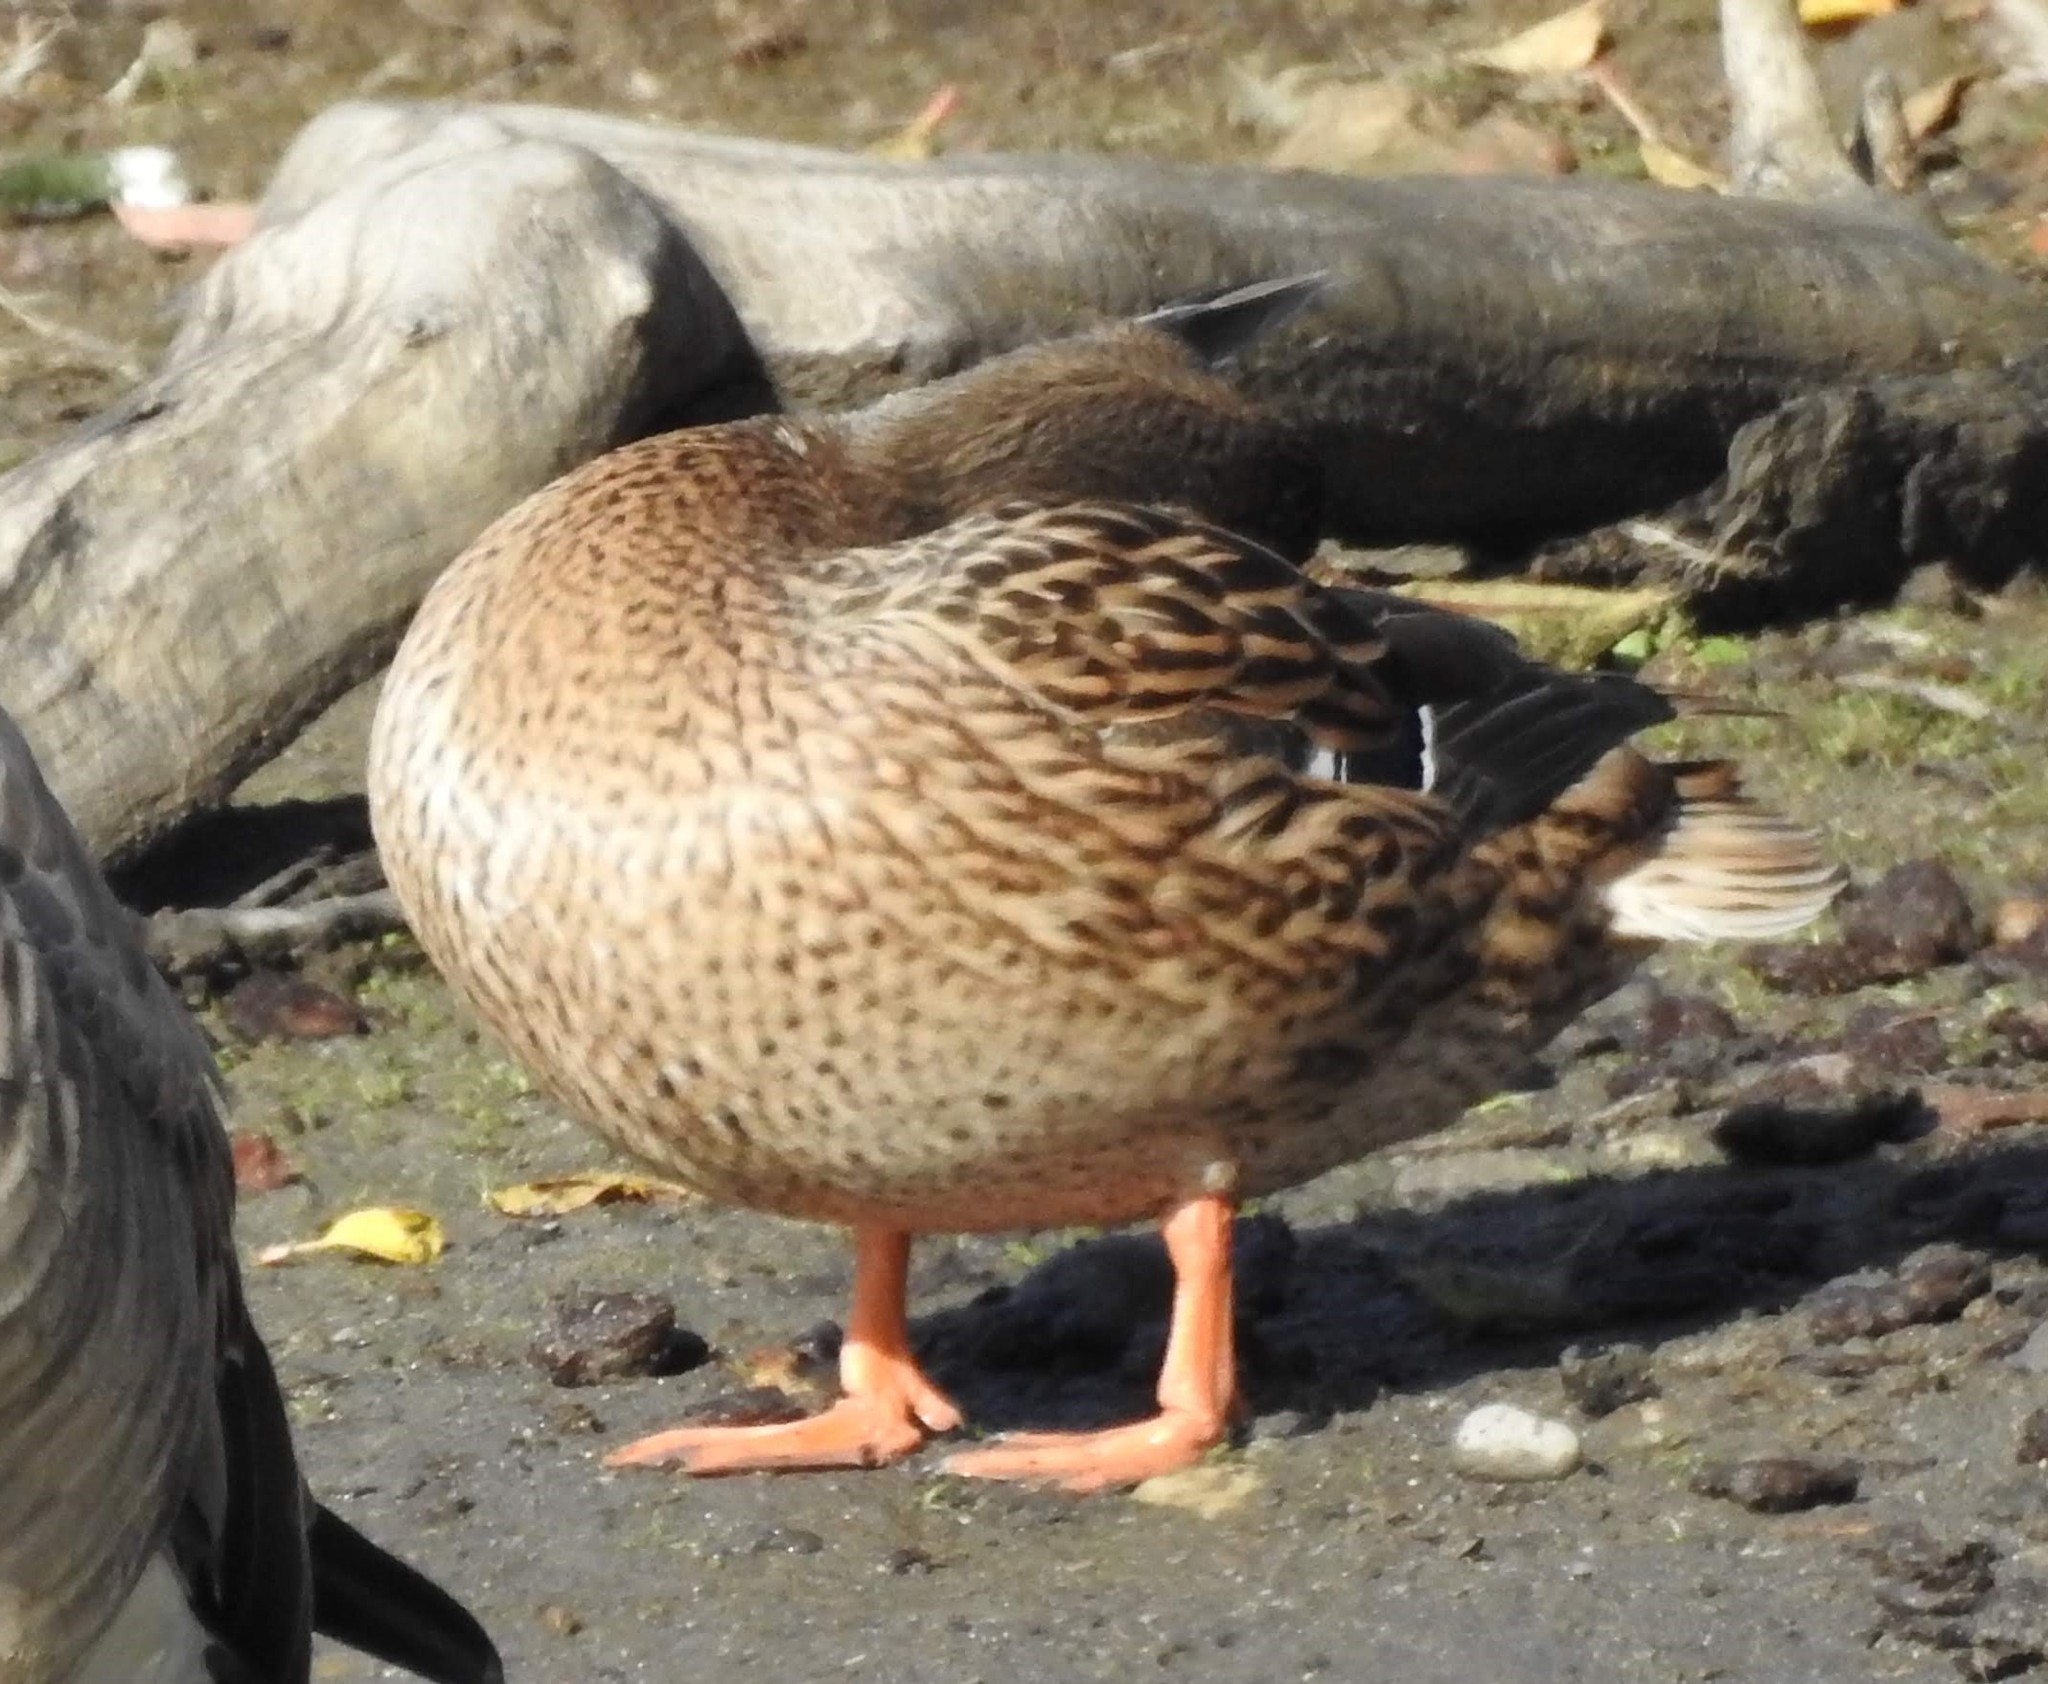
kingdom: Animalia
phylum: Chordata
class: Aves
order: Anseriformes
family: Anatidae
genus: Anas
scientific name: Anas platyrhynchos
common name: Mallard
